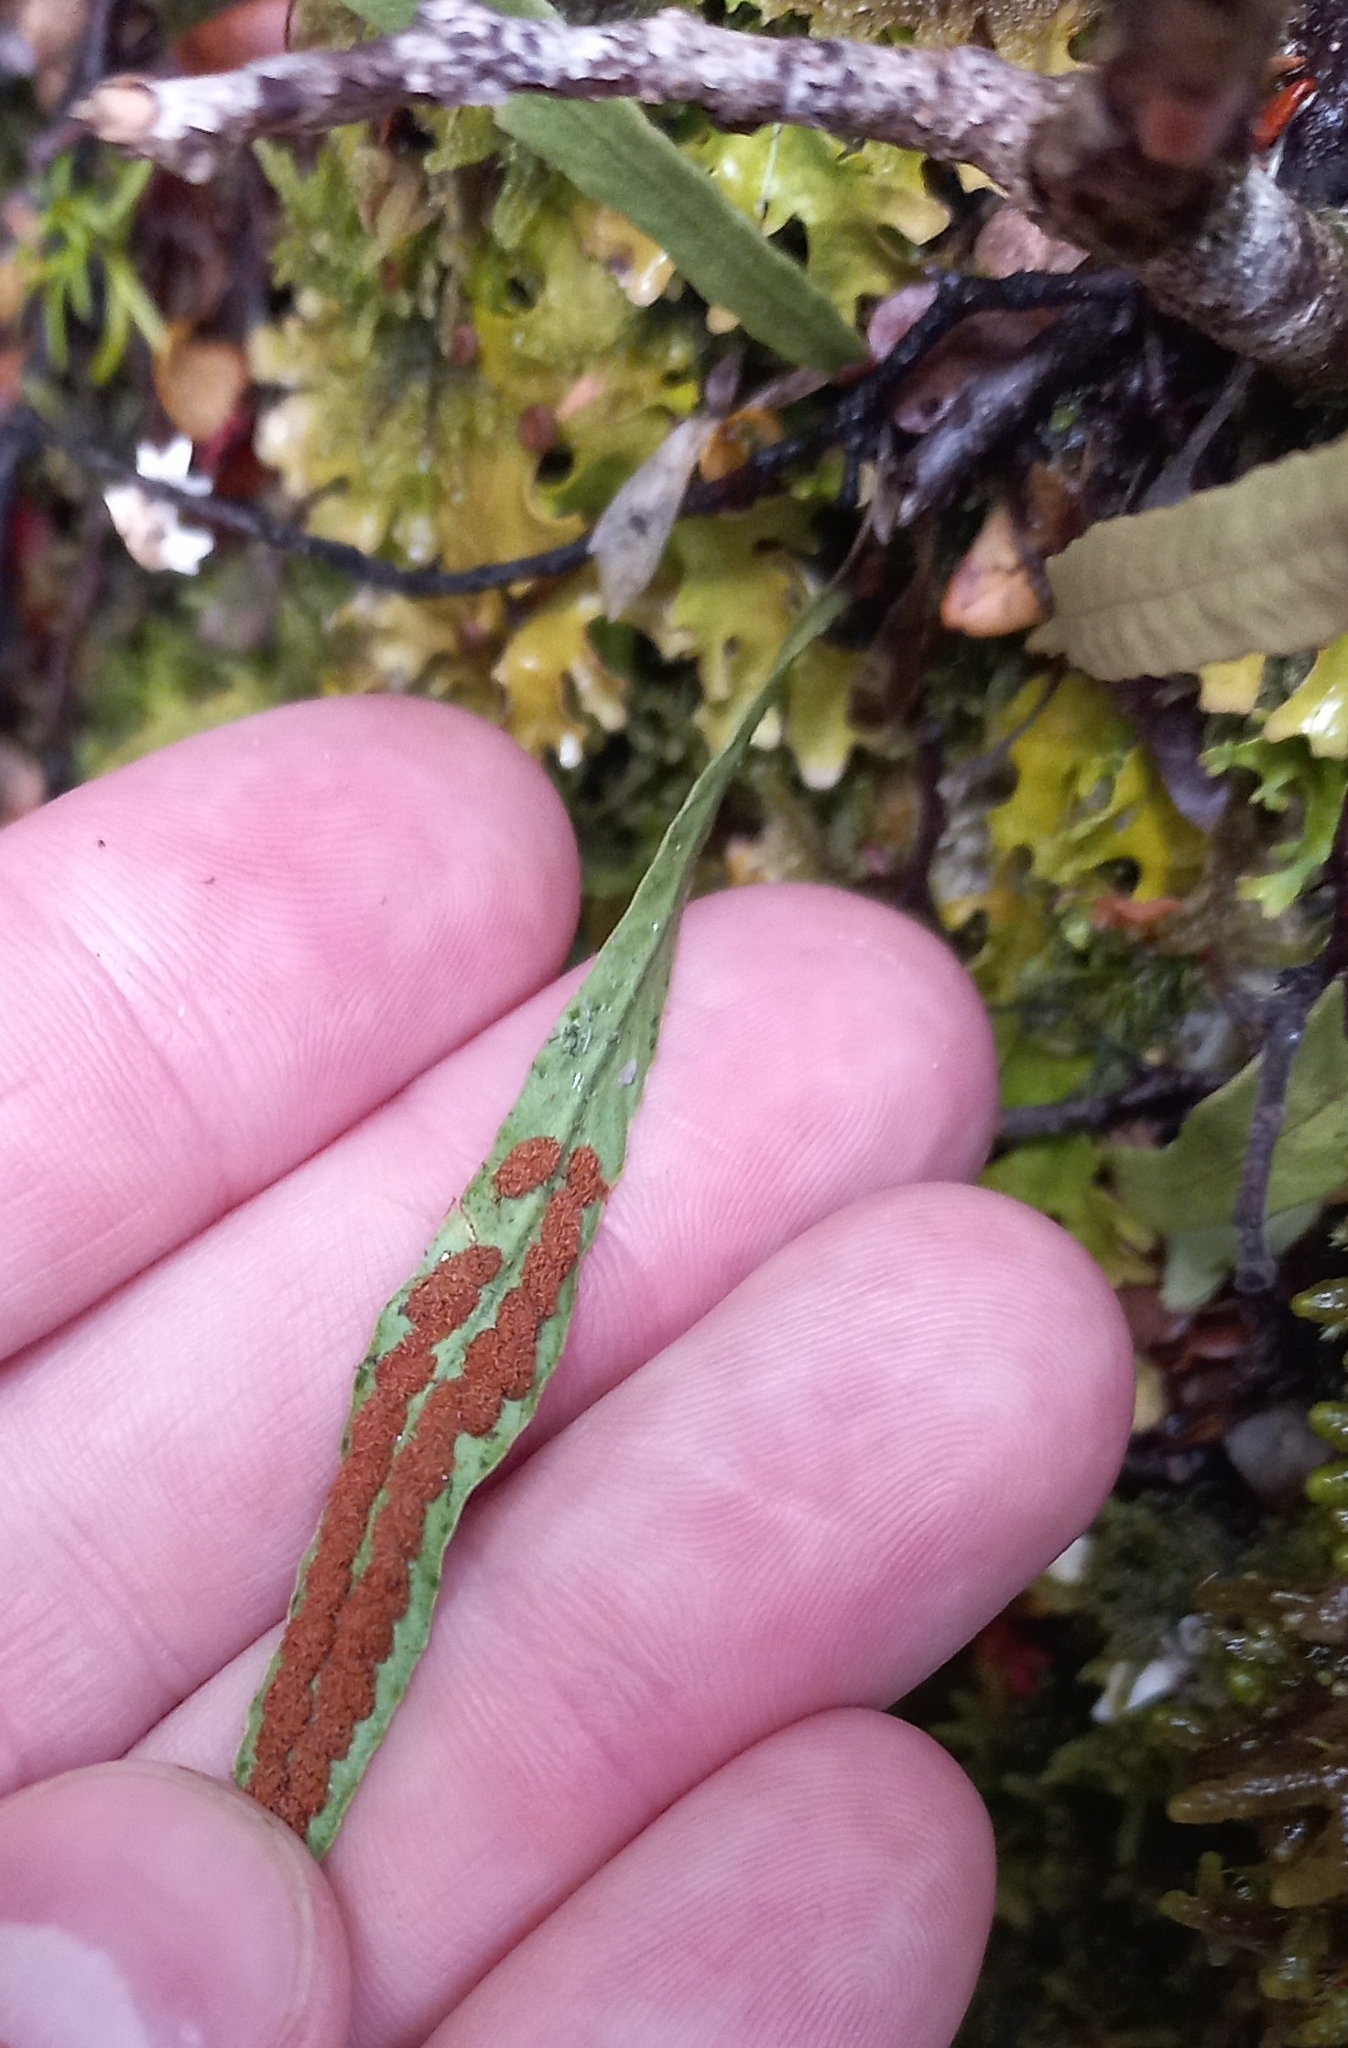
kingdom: Plantae
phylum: Tracheophyta
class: Polypodiopsida
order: Polypodiales
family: Polypodiaceae
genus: Notogrammitis
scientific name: Notogrammitis billardierei
